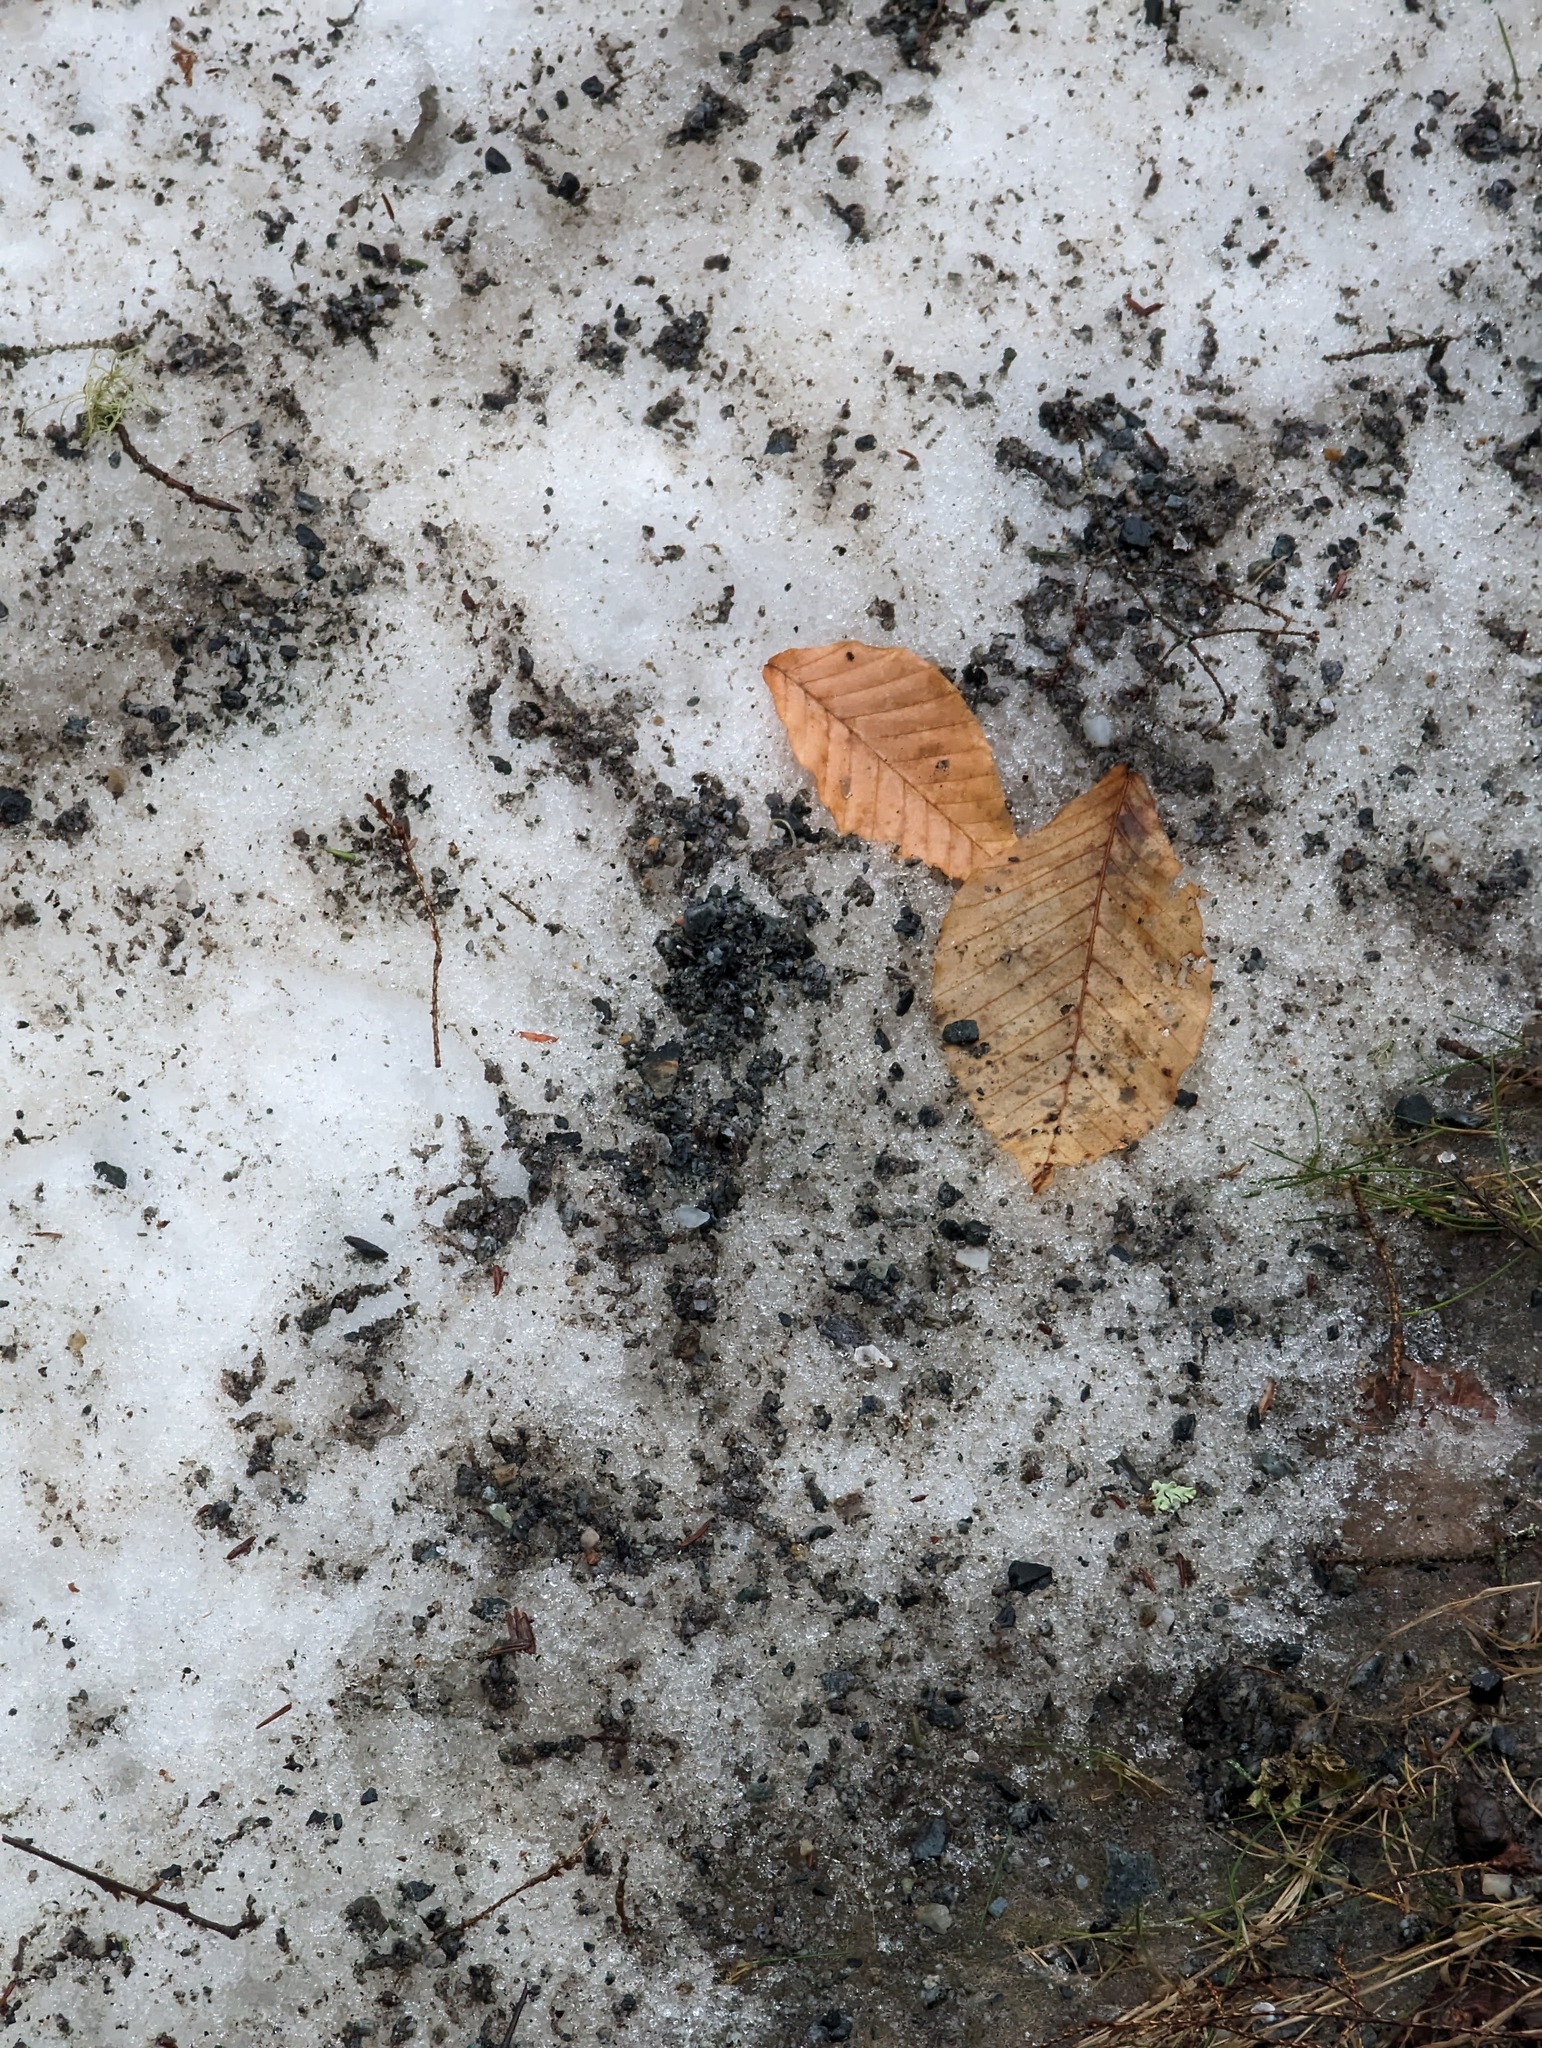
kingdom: Plantae
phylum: Tracheophyta
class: Magnoliopsida
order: Fagales
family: Fagaceae
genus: Fagus
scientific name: Fagus grandifolia
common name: American beech
